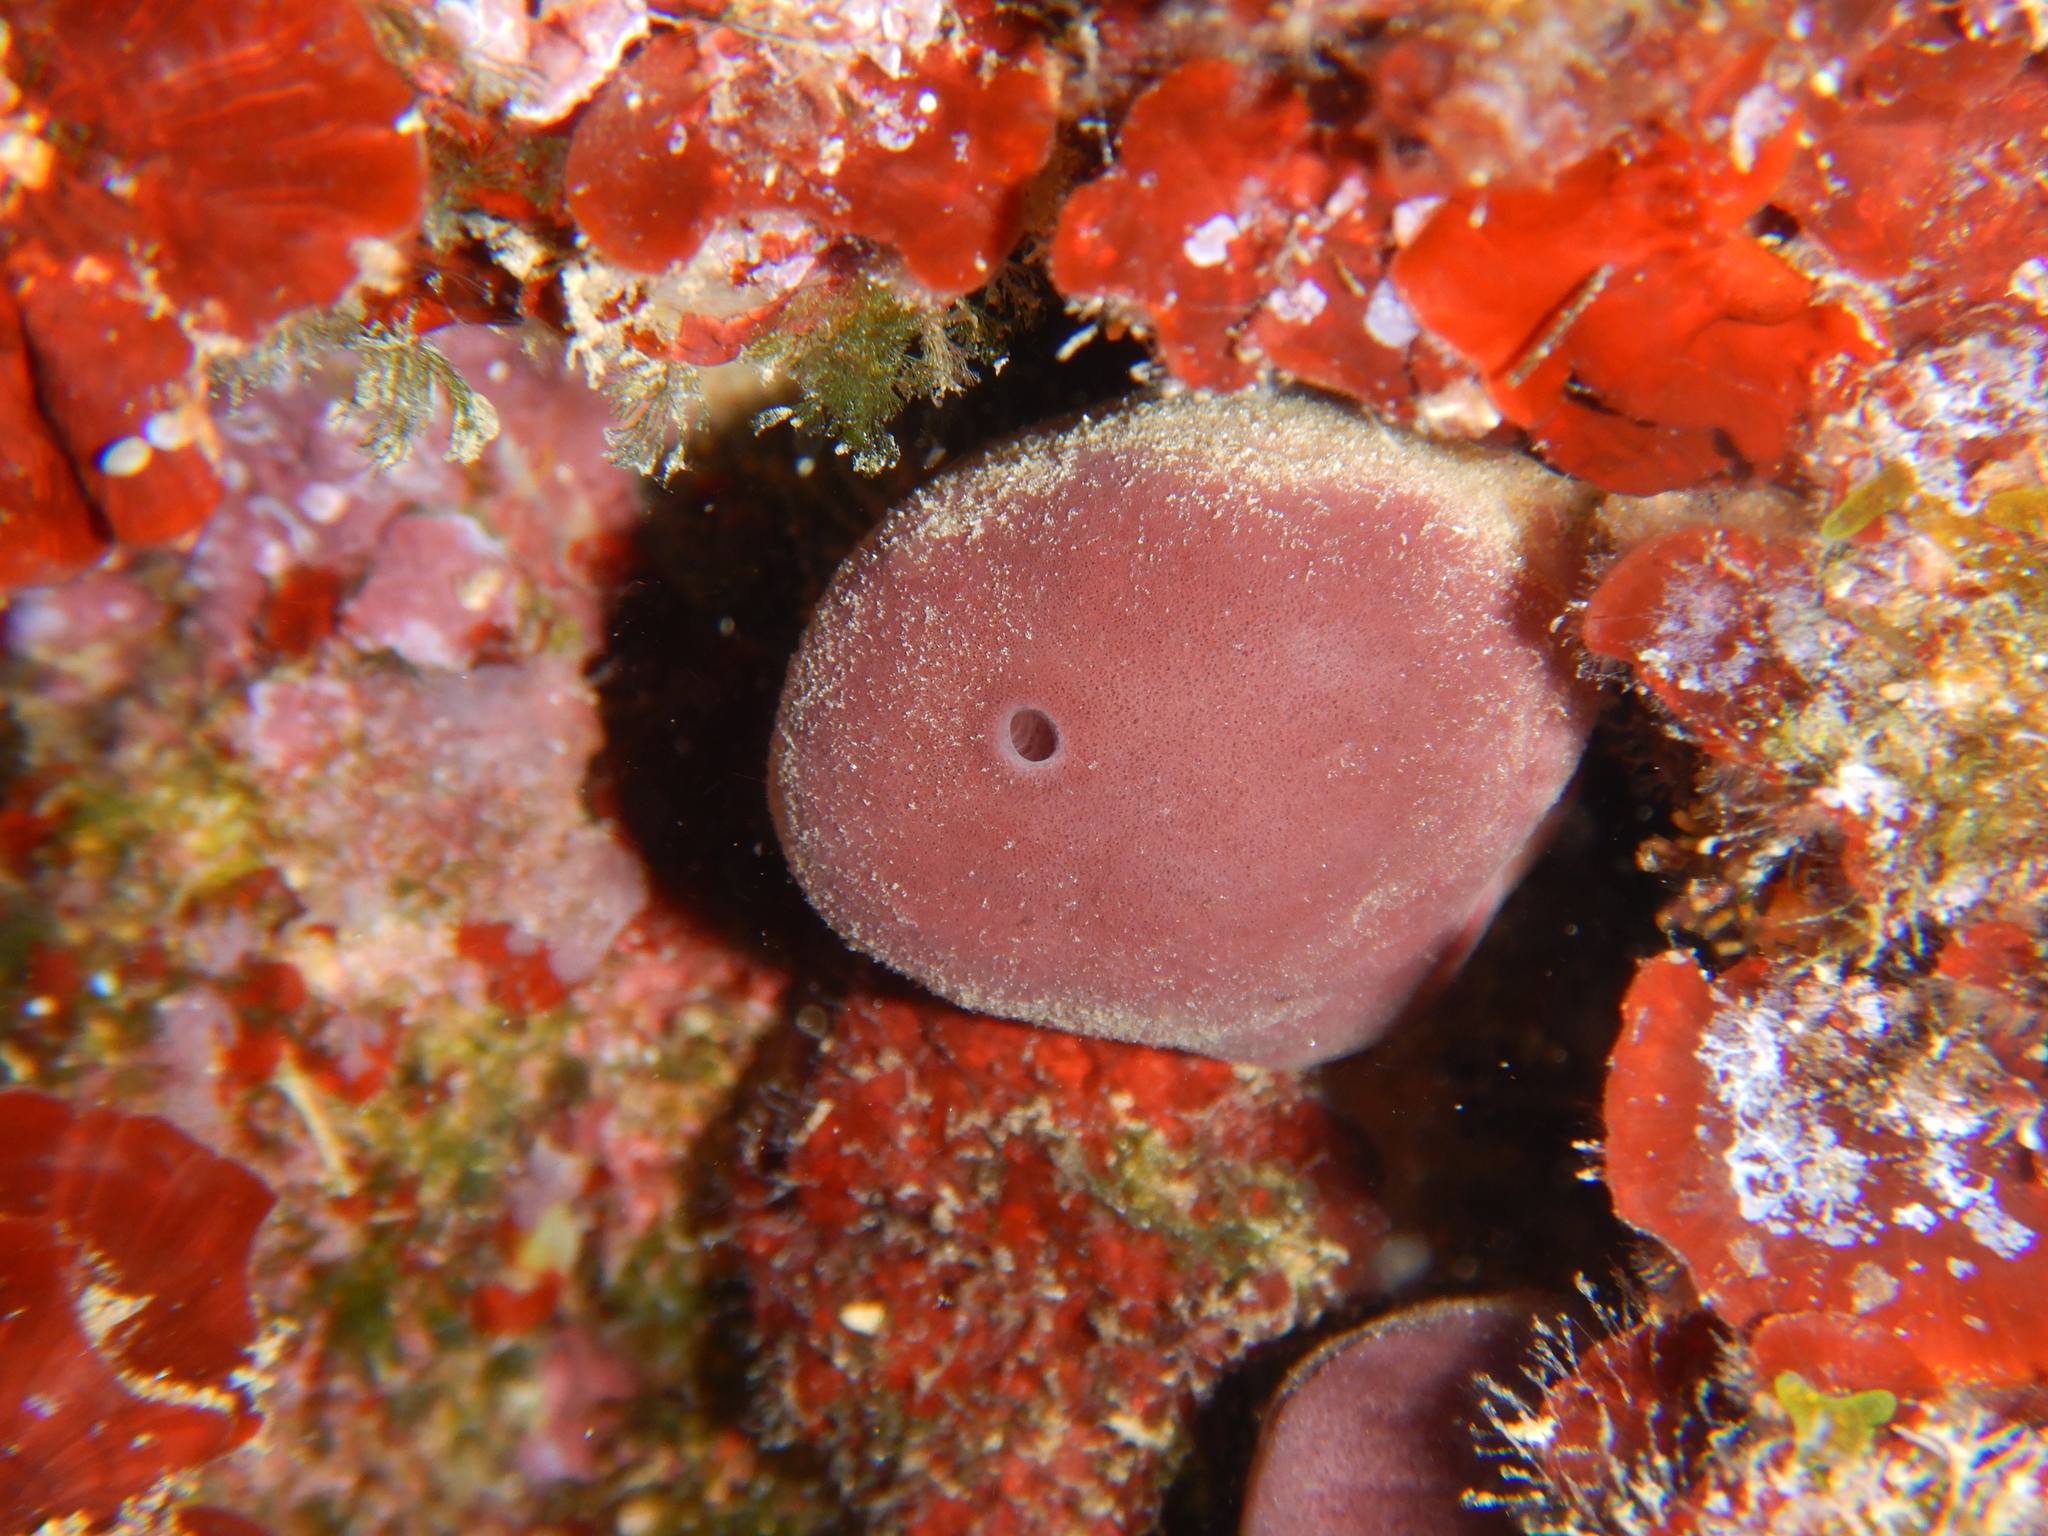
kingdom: Animalia
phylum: Porifera
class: Demospongiae
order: Haplosclerida
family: Petrosiidae
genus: Petrosia
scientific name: Petrosia ficiformis
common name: Stony sponge
